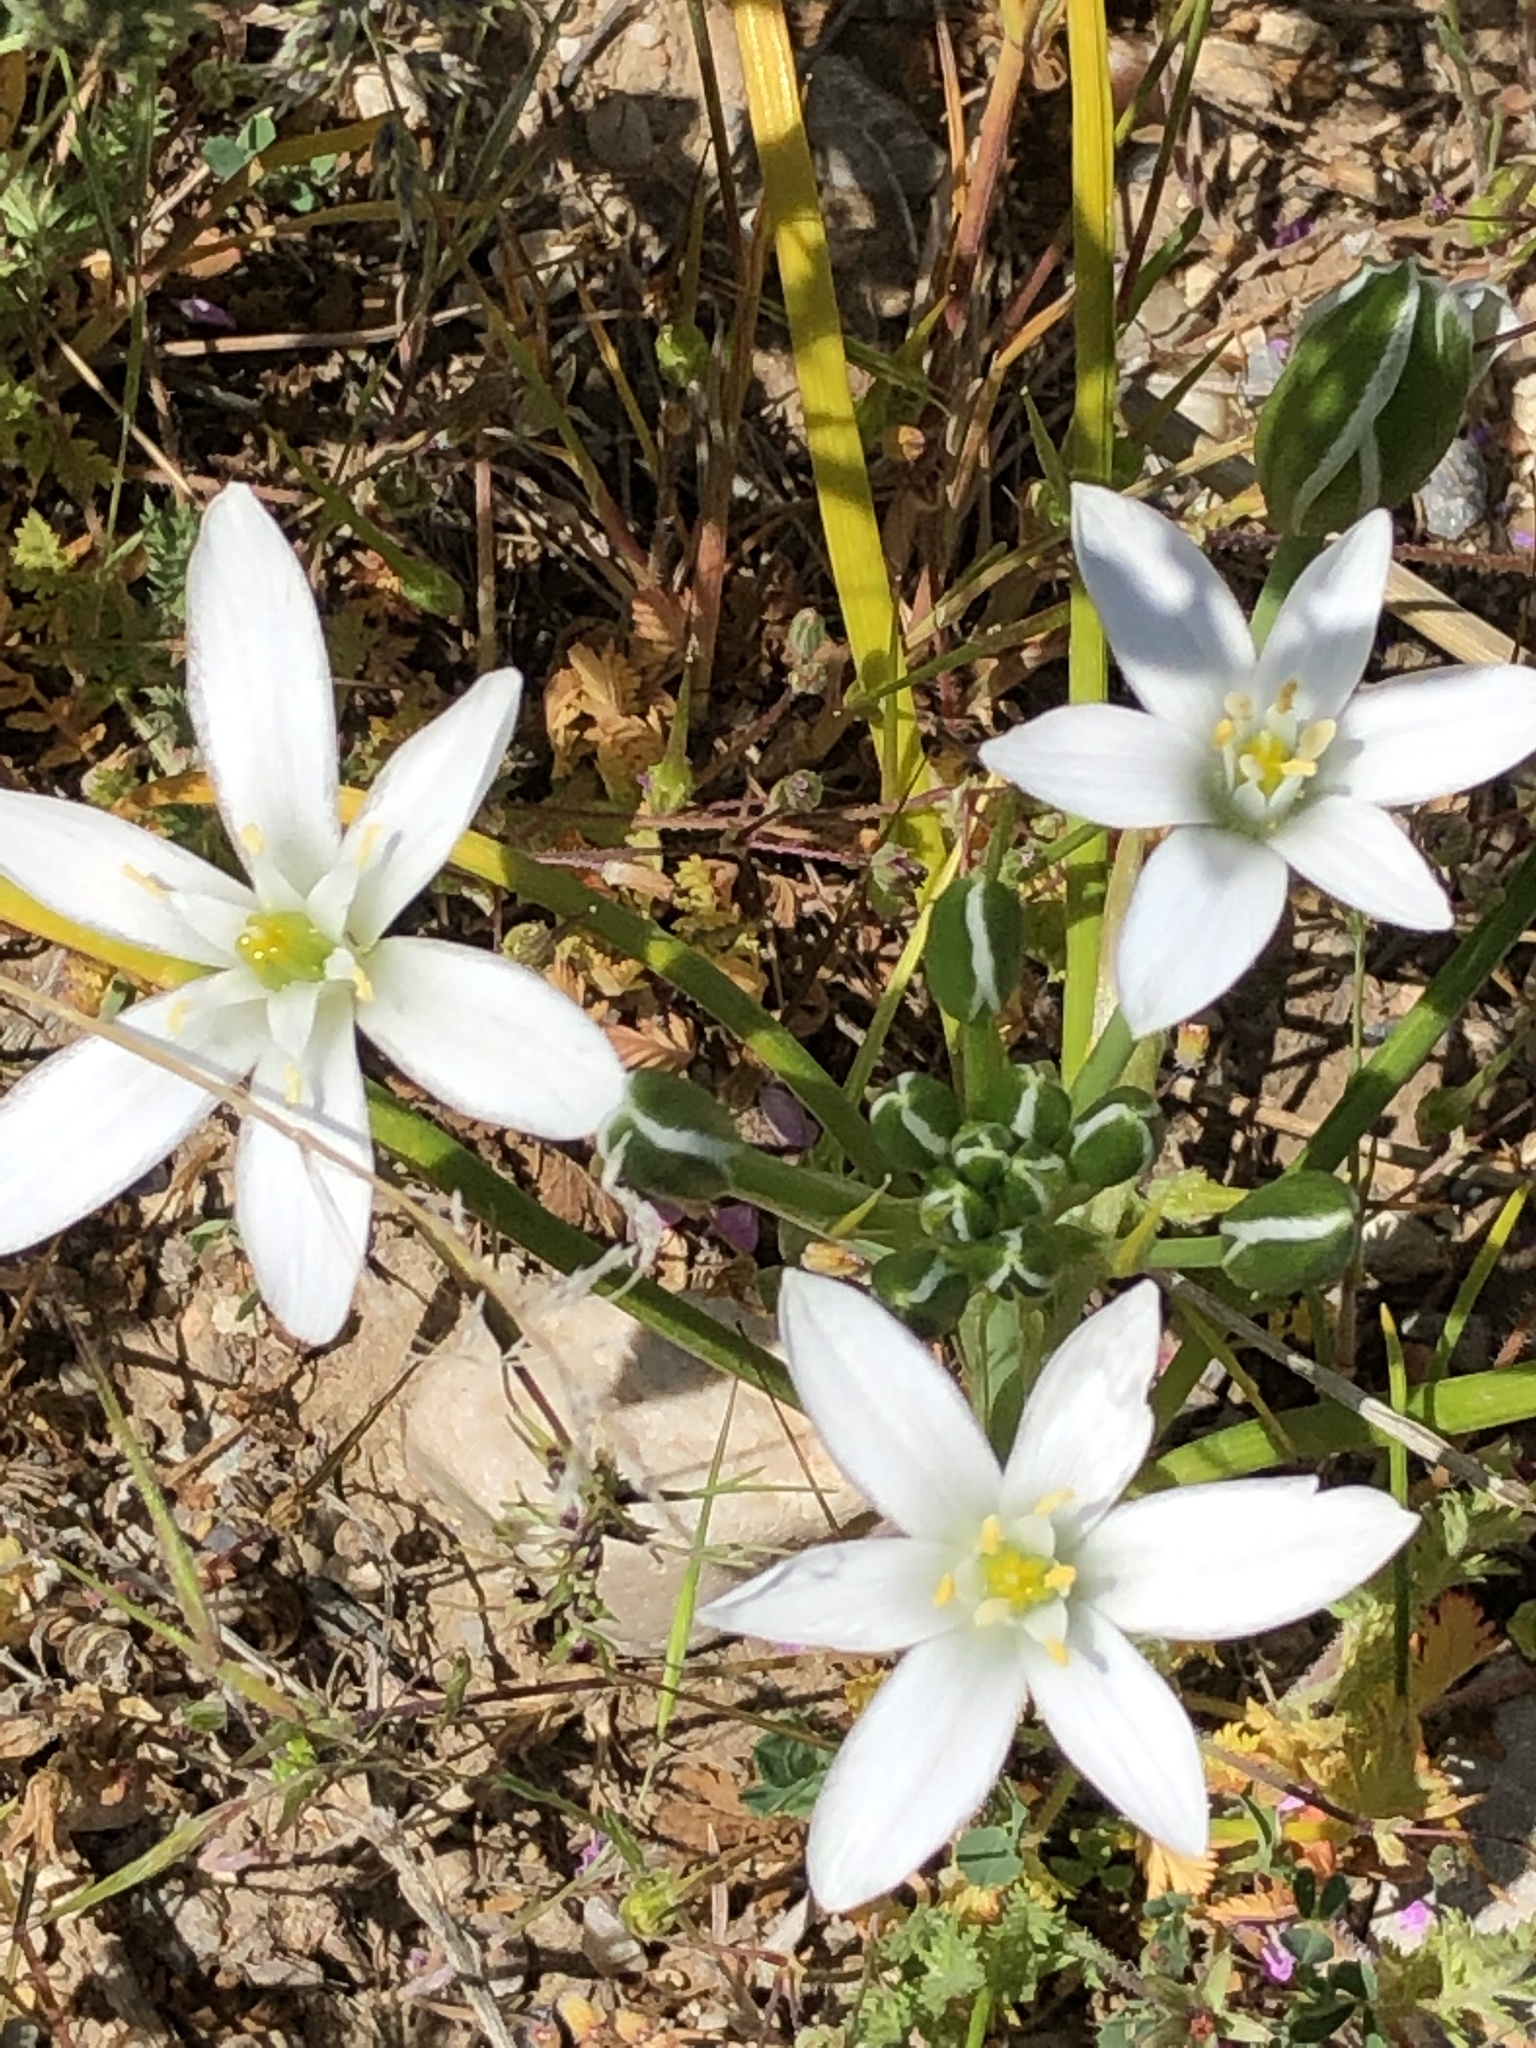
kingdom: Plantae
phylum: Tracheophyta
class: Liliopsida
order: Asparagales
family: Asparagaceae
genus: Ornithogalum
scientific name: Ornithogalum umbellatum
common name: Garden star-of-bethlehem
